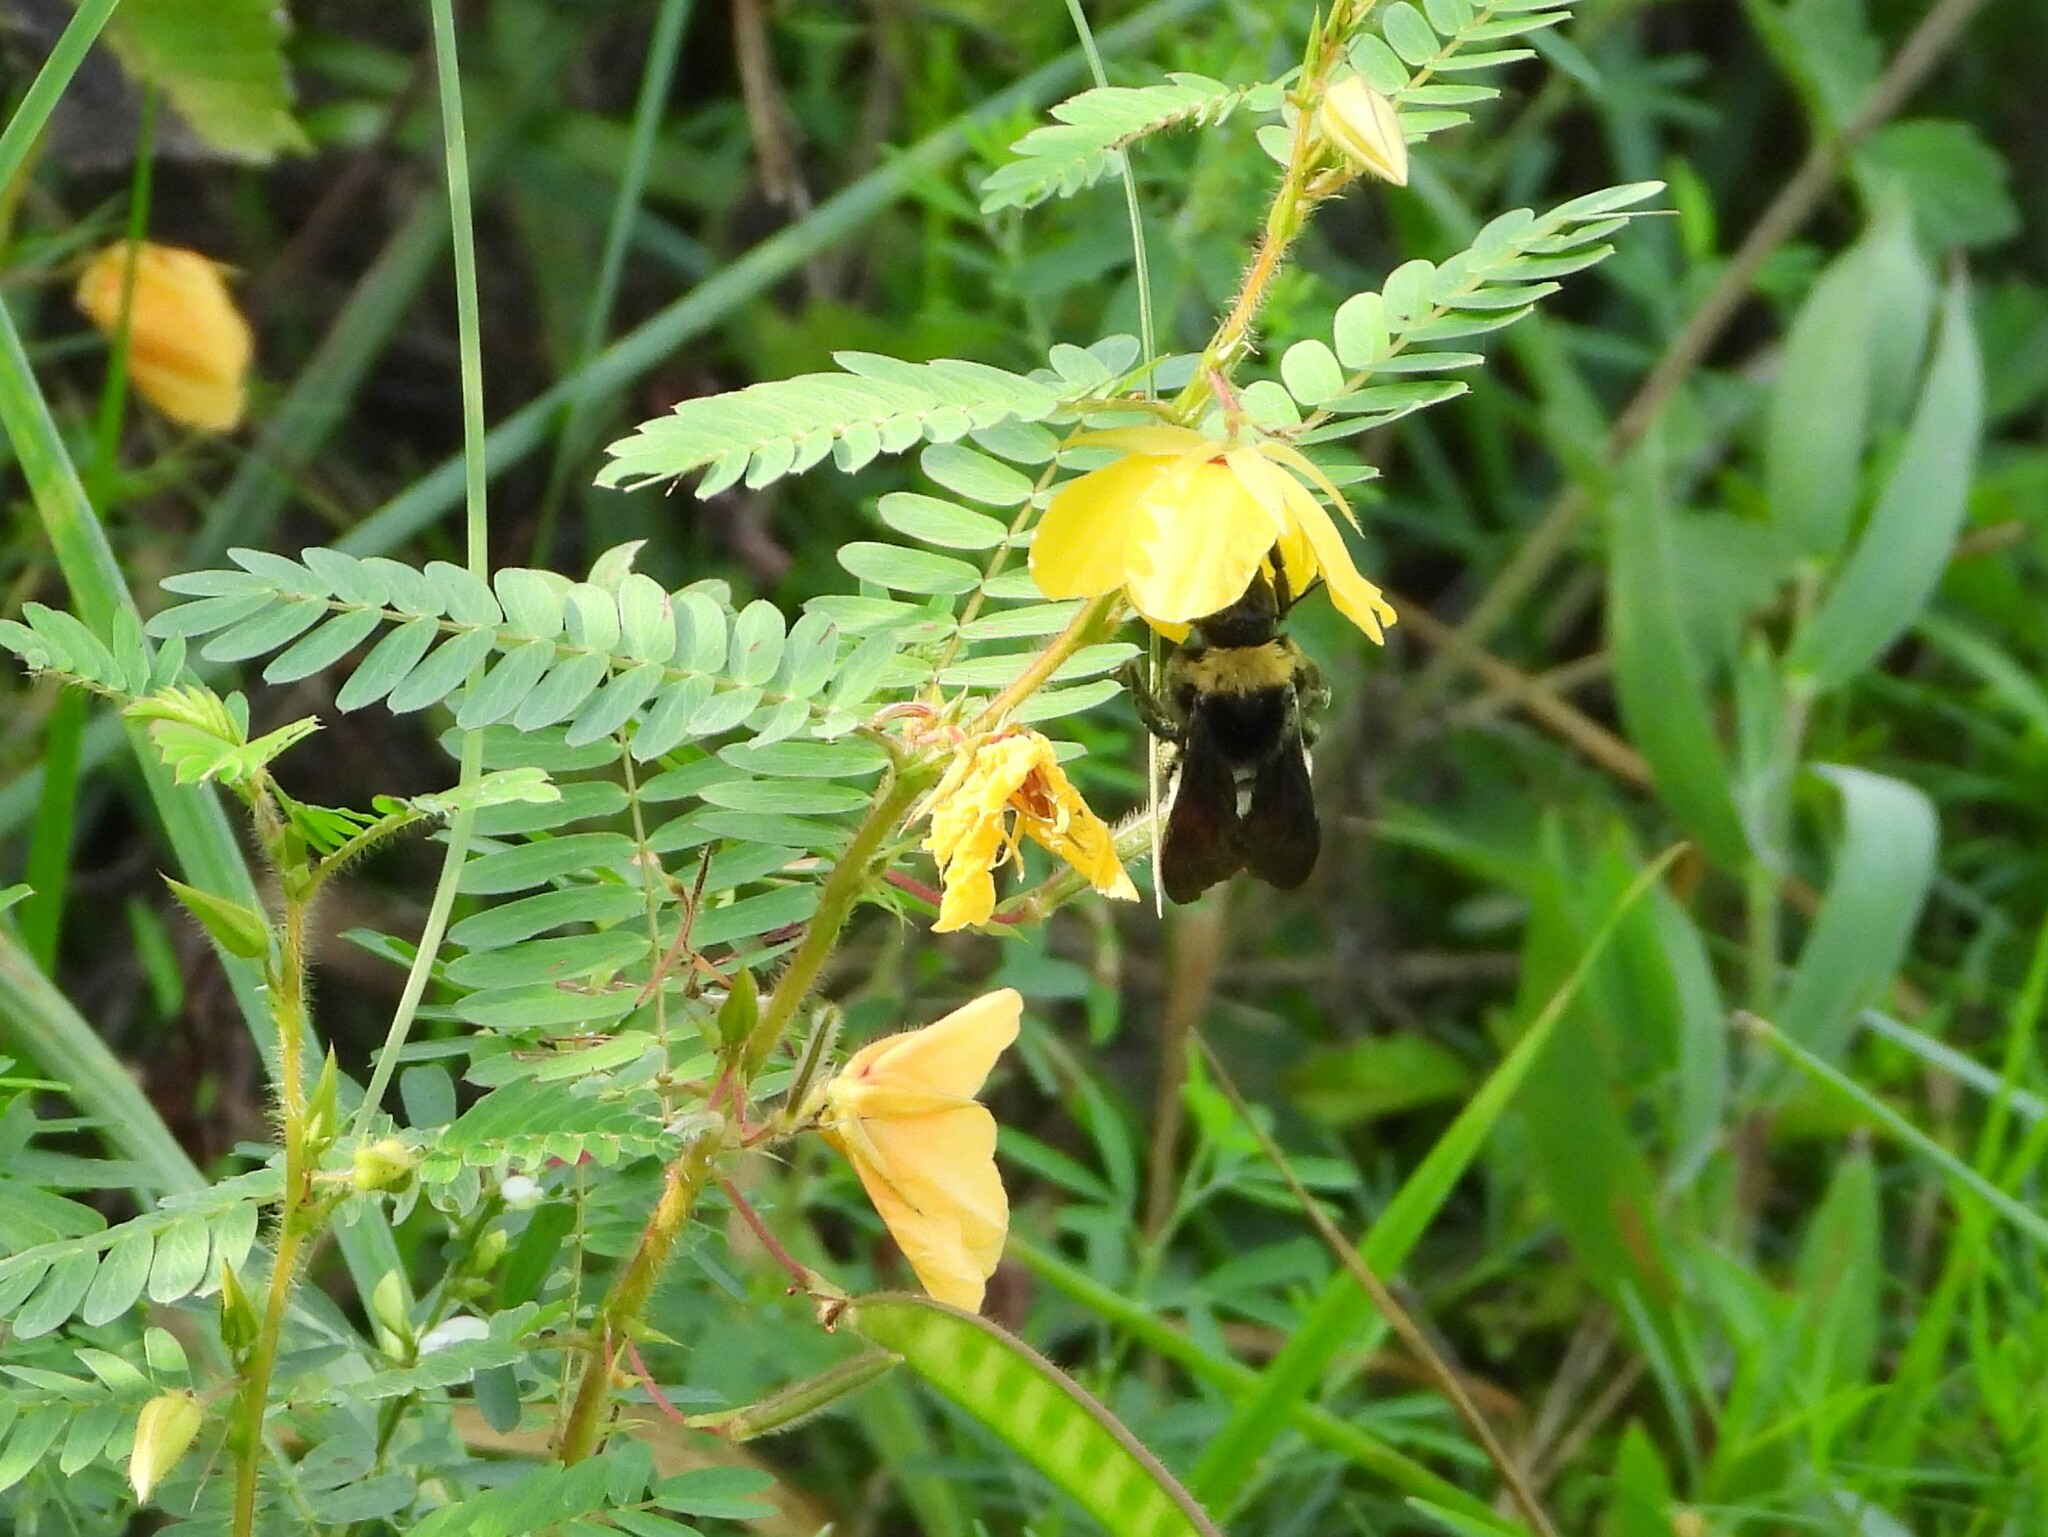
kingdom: Animalia
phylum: Arthropoda
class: Insecta
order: Hymenoptera
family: Apidae
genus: Bombus
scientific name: Bombus pensylvanicus
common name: Bumble bee
